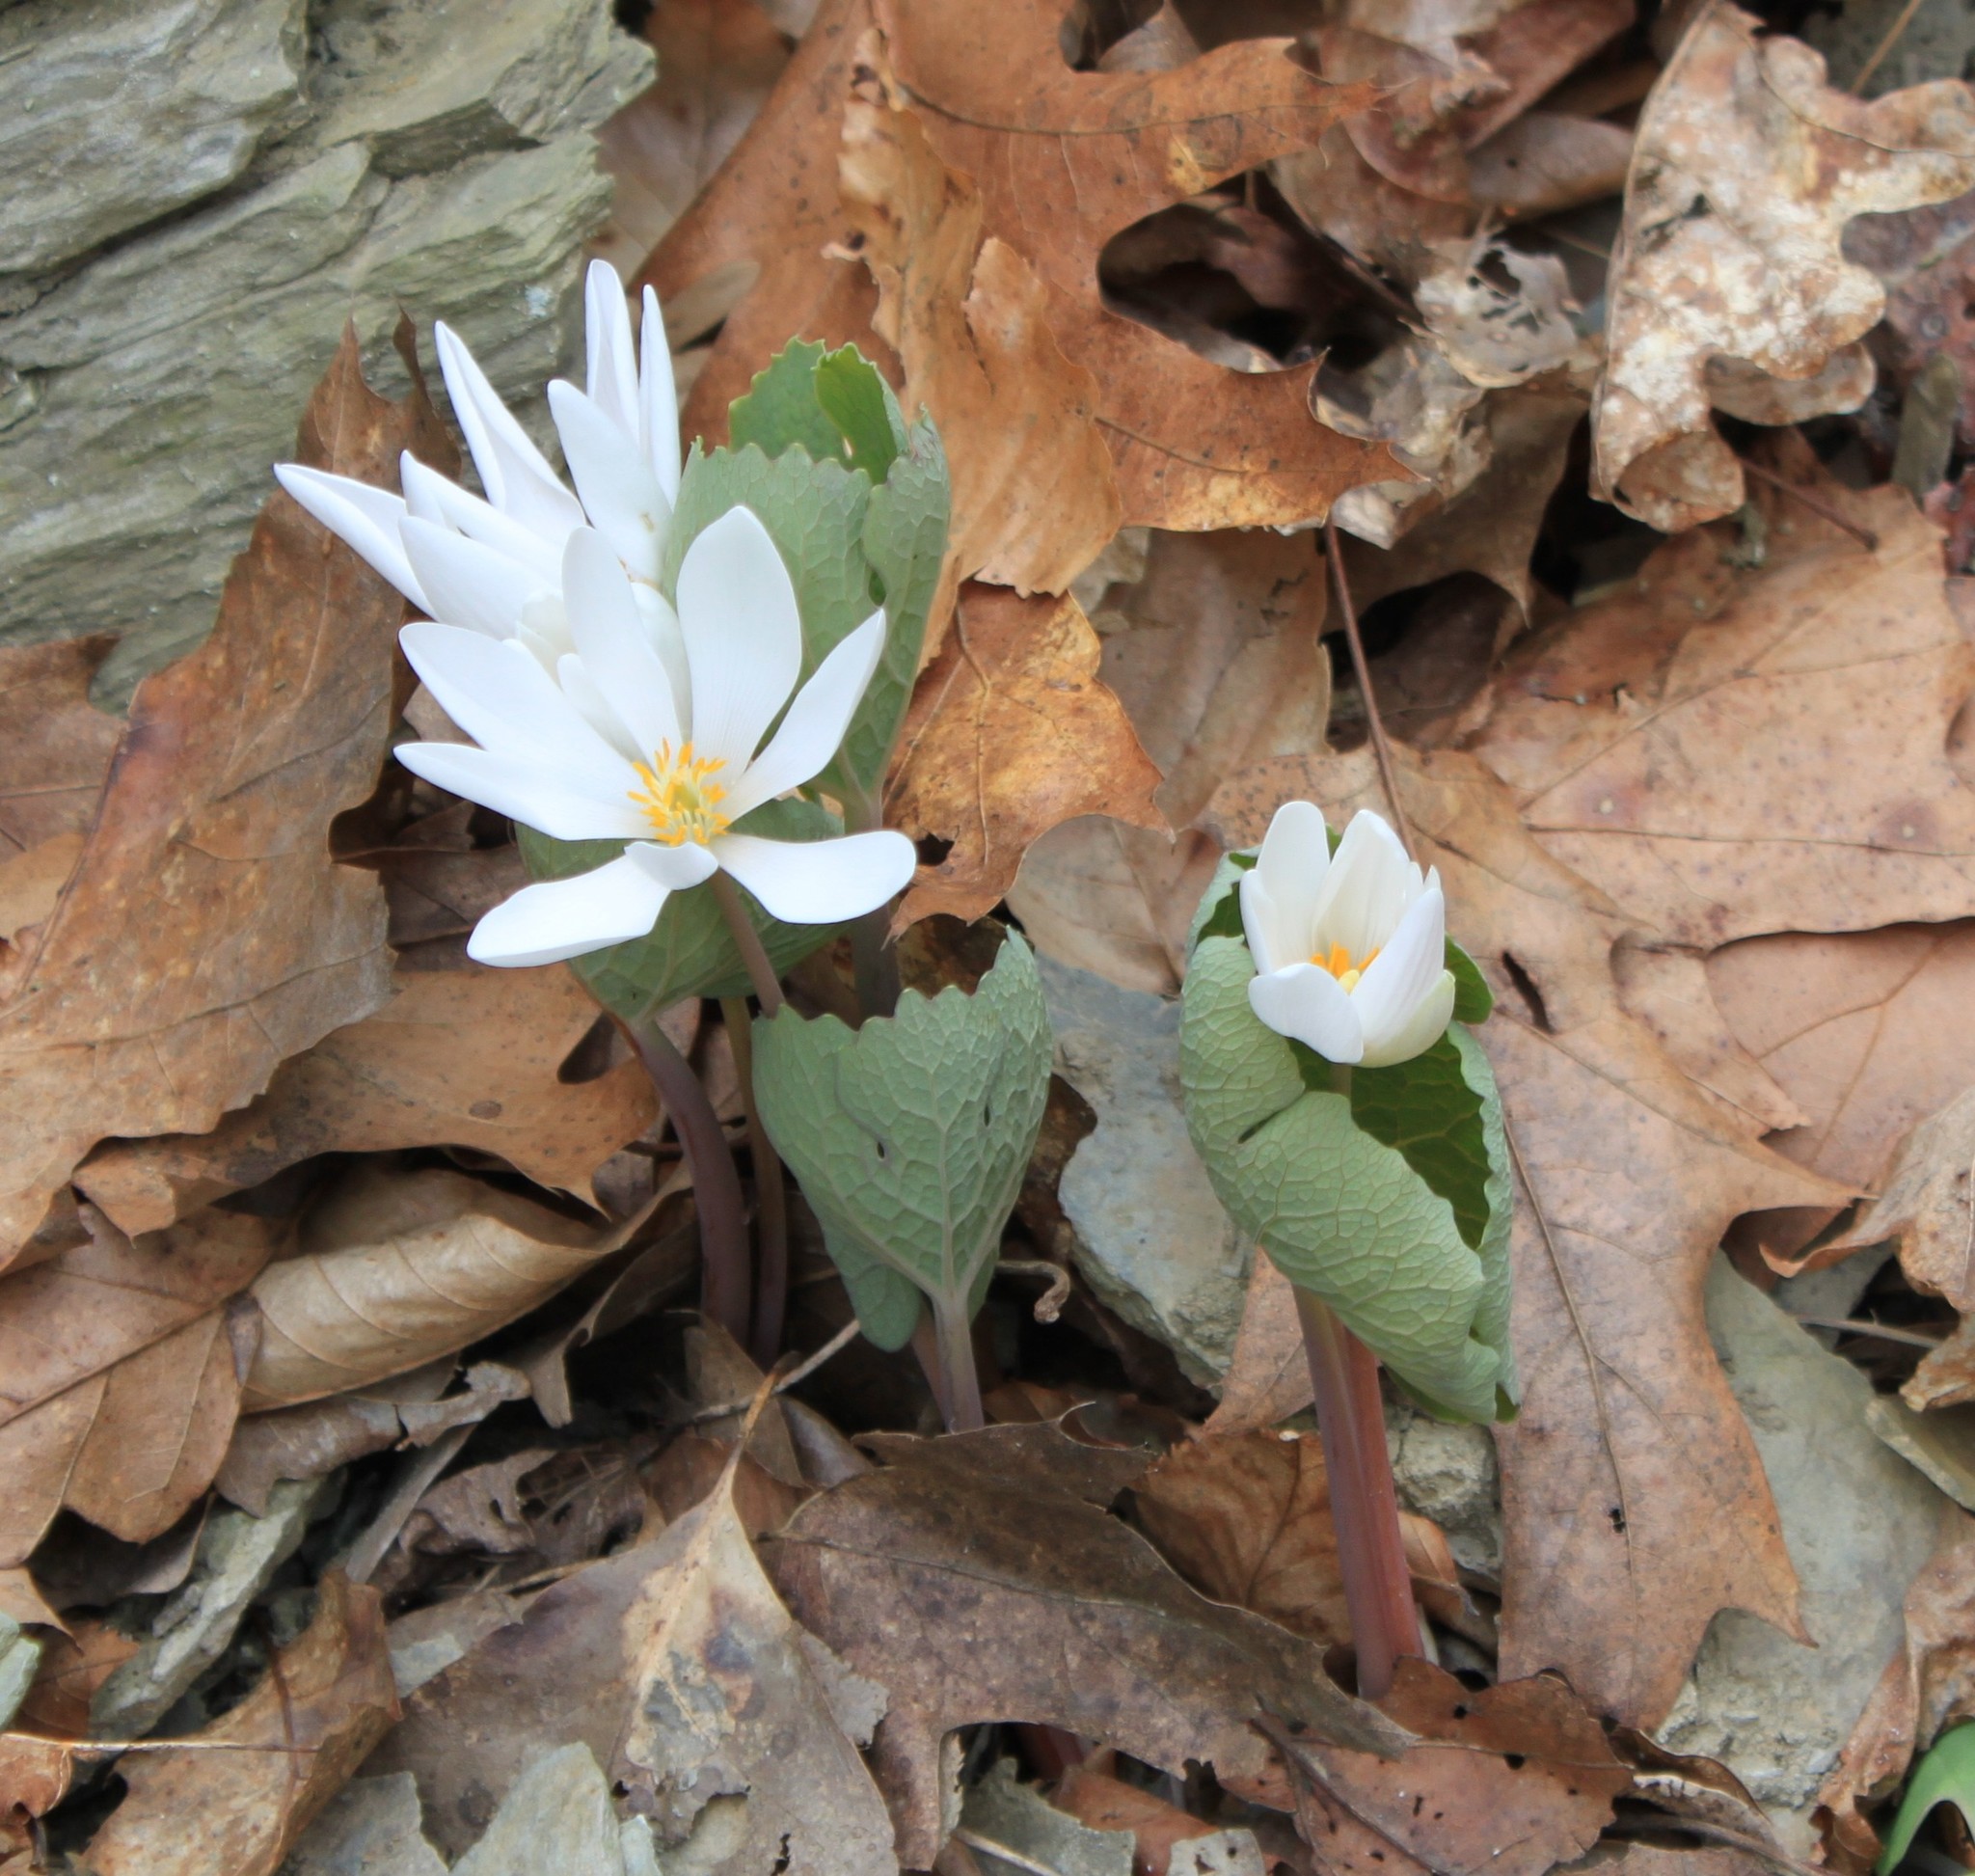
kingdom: Plantae
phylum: Tracheophyta
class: Magnoliopsida
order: Ranunculales
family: Papaveraceae
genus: Sanguinaria
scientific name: Sanguinaria canadensis
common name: Bloodroot
